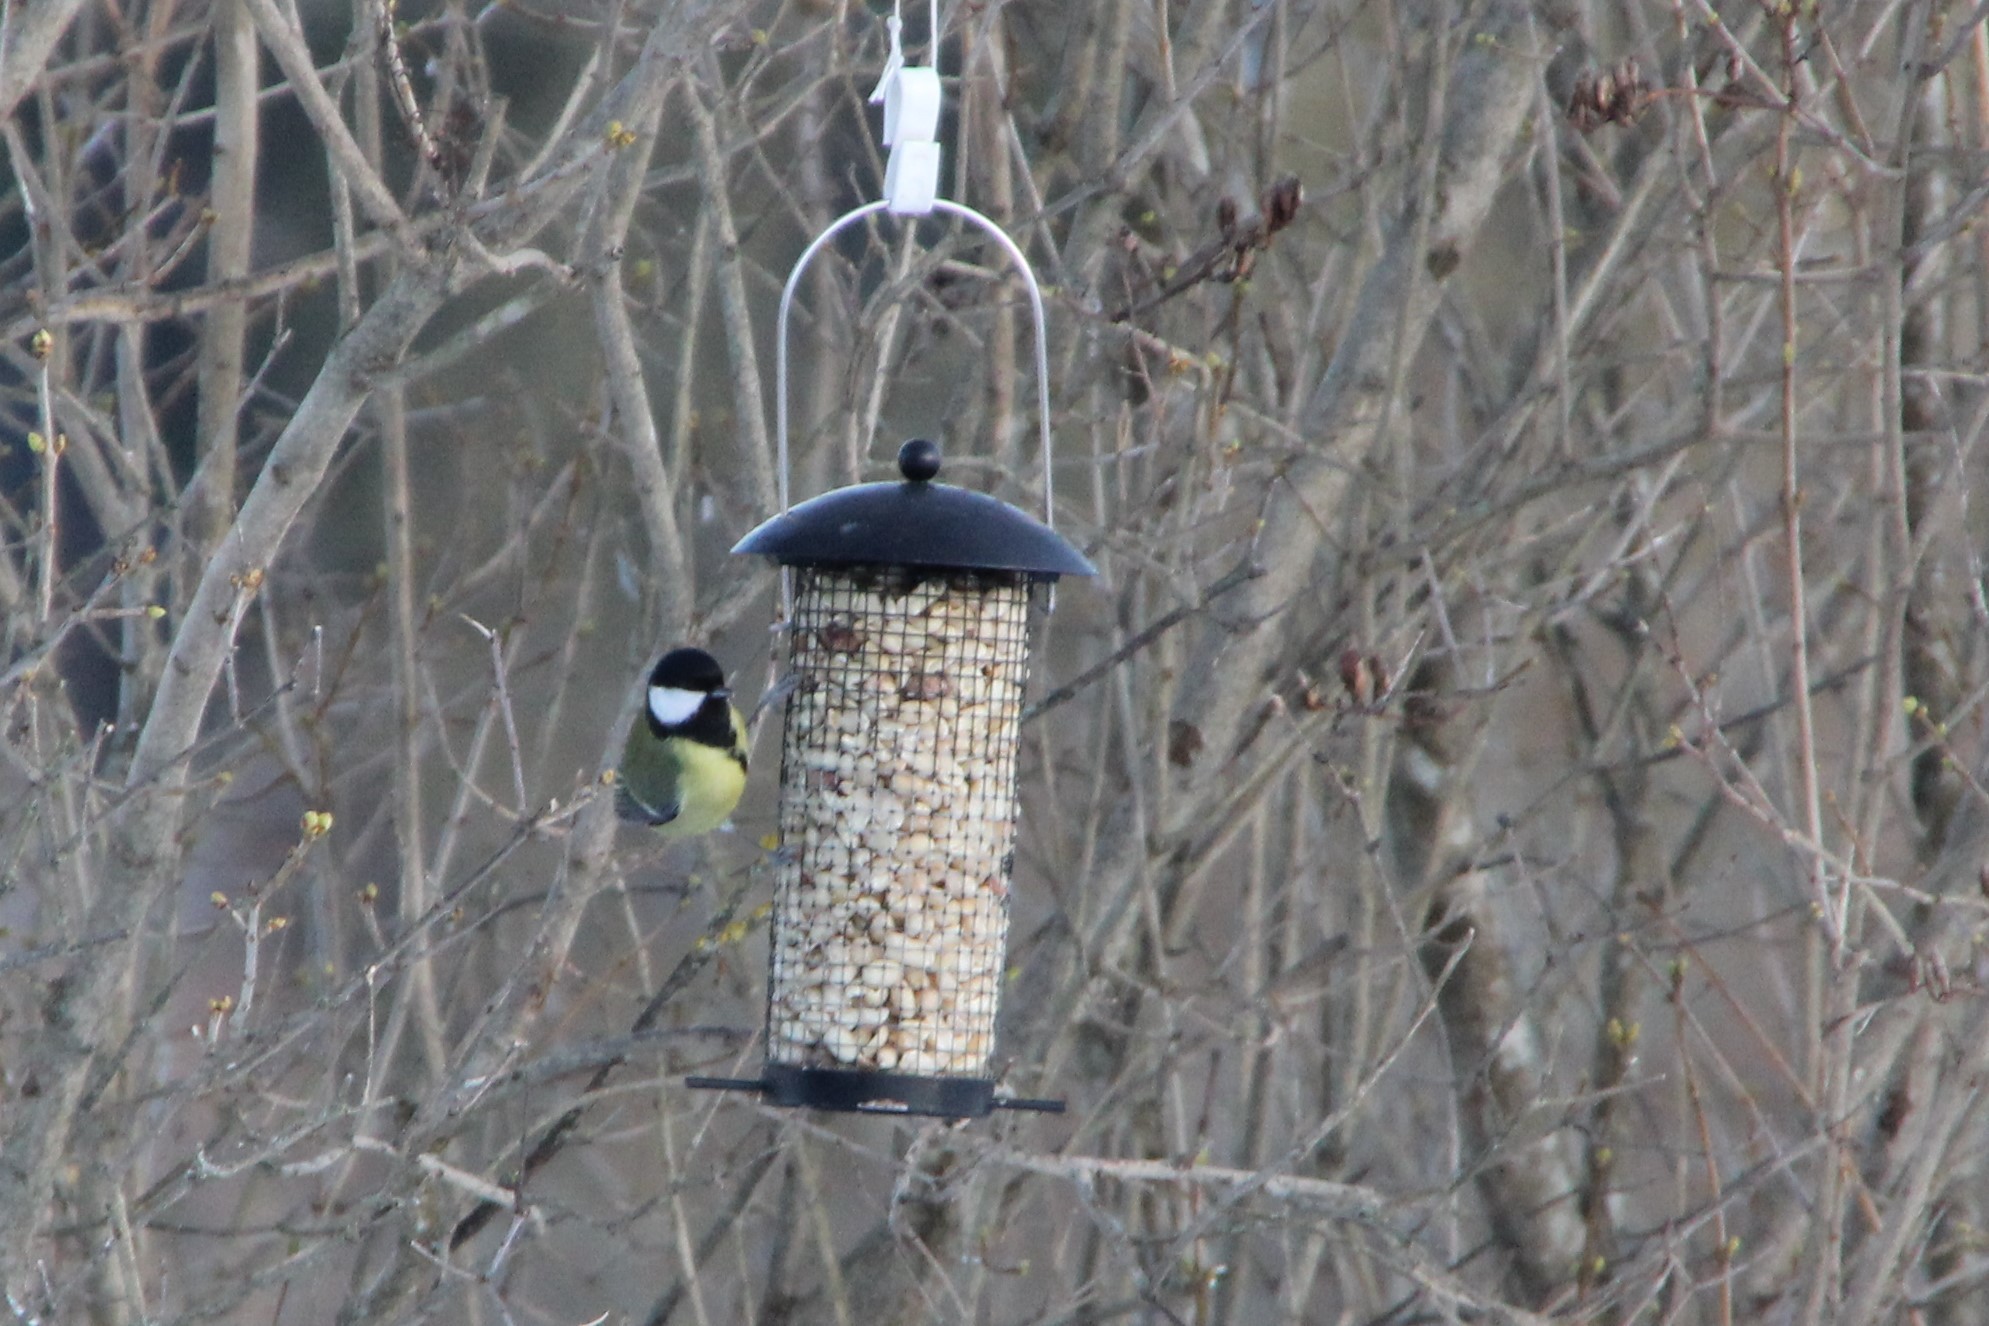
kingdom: Animalia
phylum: Chordata
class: Aves
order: Passeriformes
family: Paridae
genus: Parus
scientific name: Parus major
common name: Great tit
